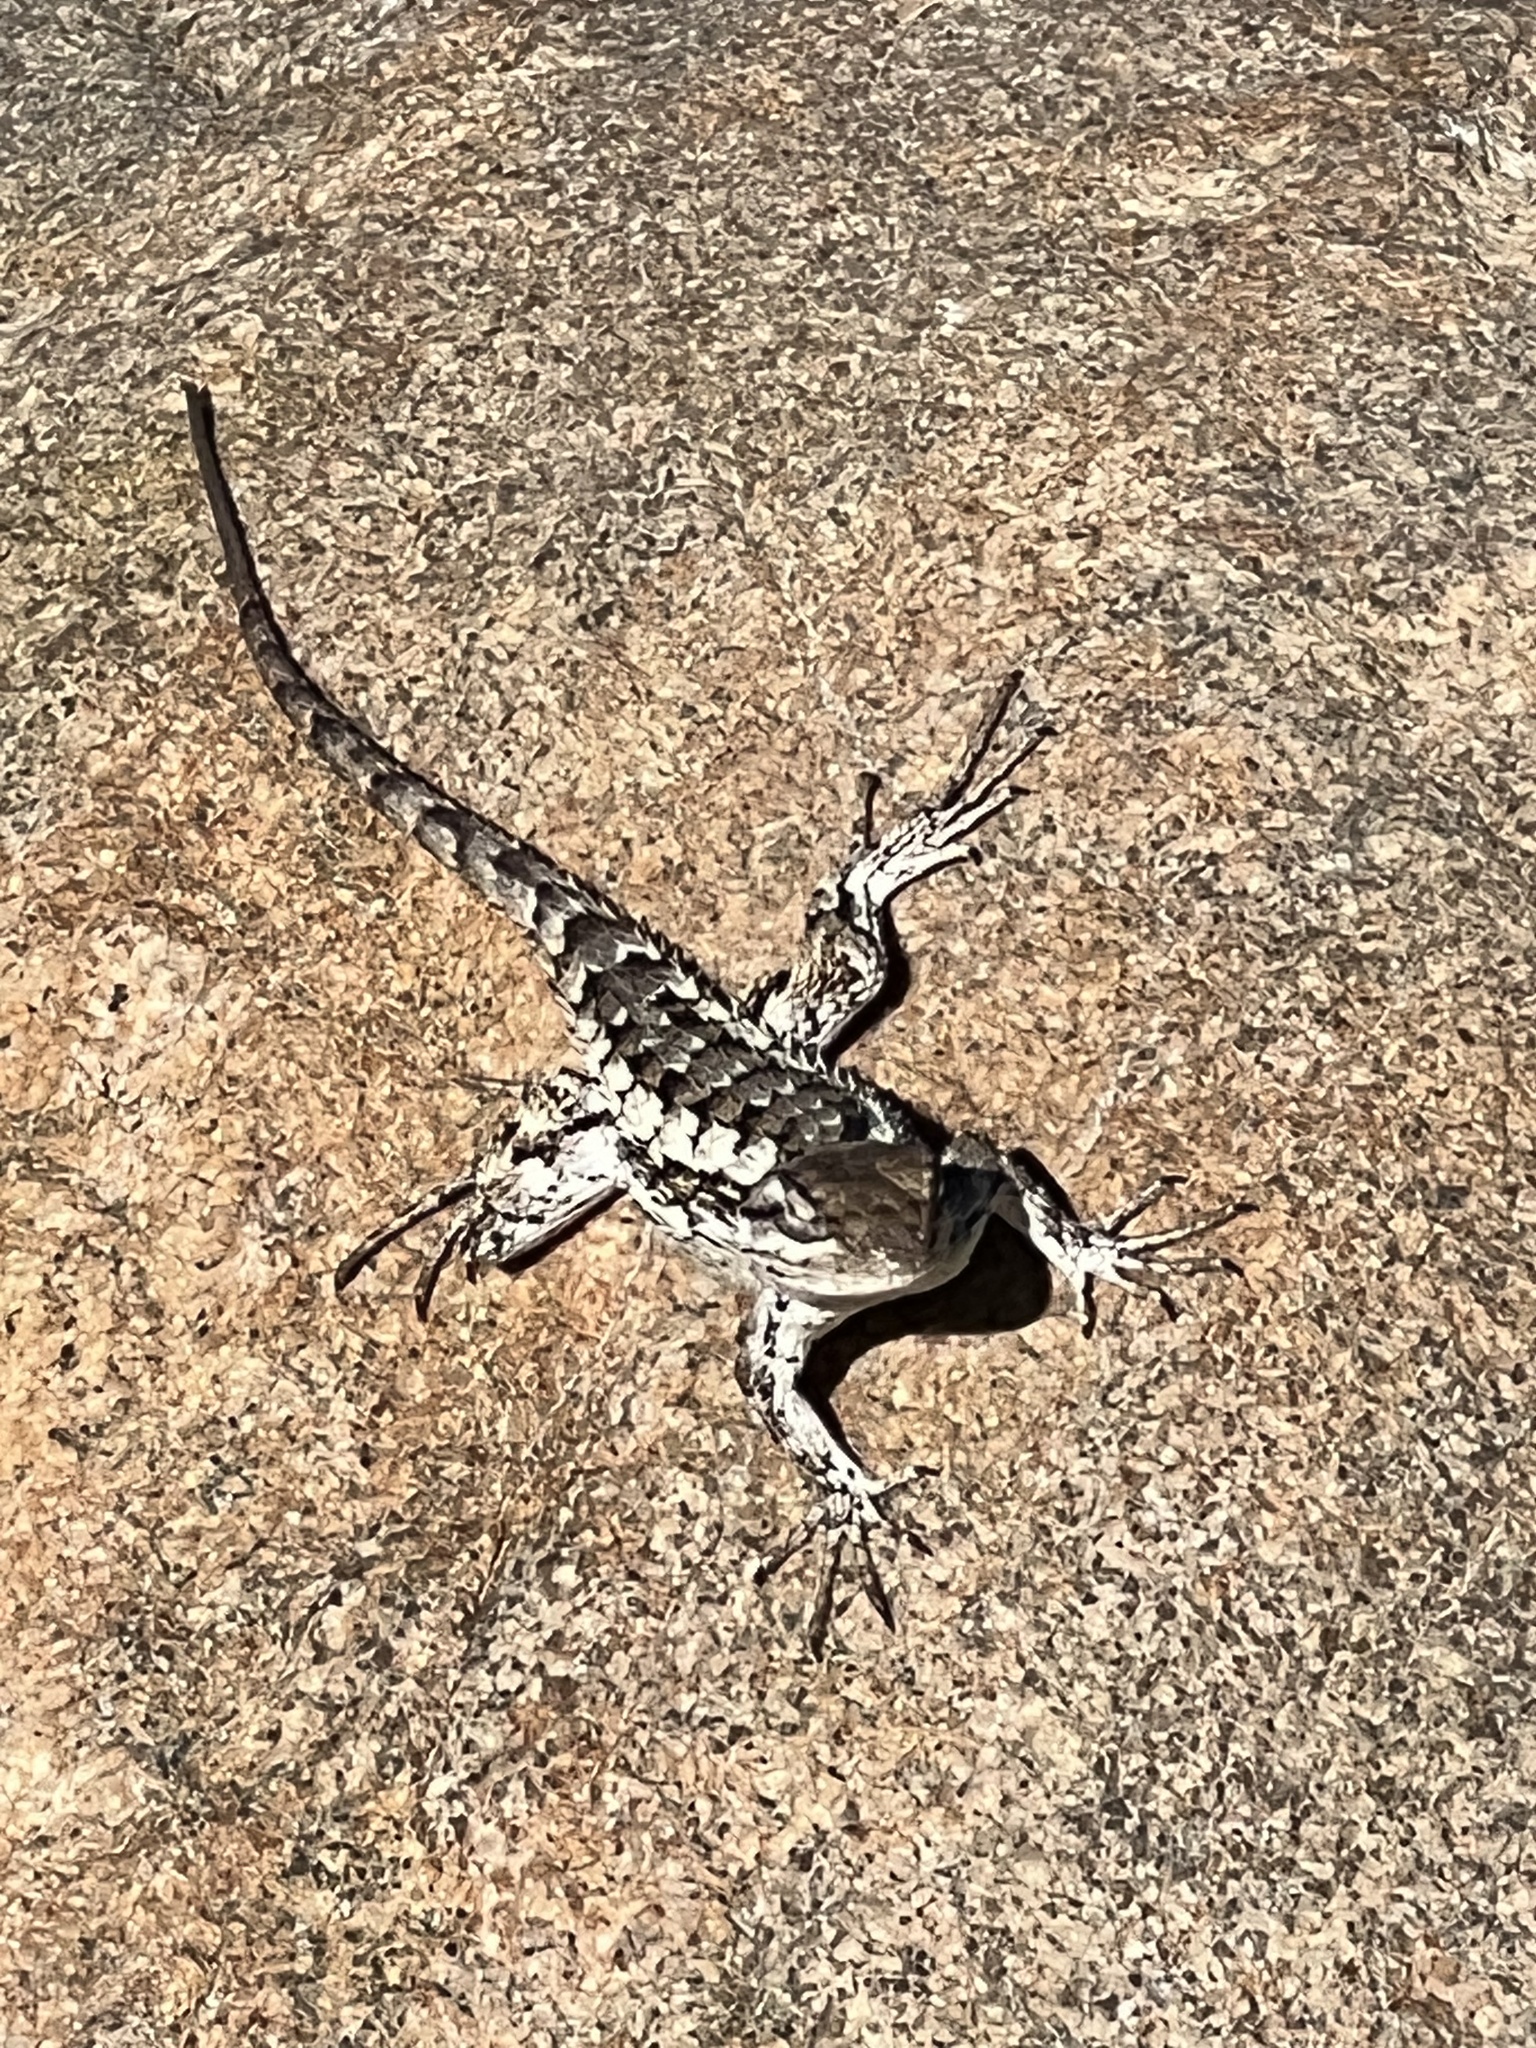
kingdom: Animalia
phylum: Chordata
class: Squamata
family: Phrynosomatidae
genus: Sceloporus
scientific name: Sceloporus olivaceus
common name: Texas spiny lizard
